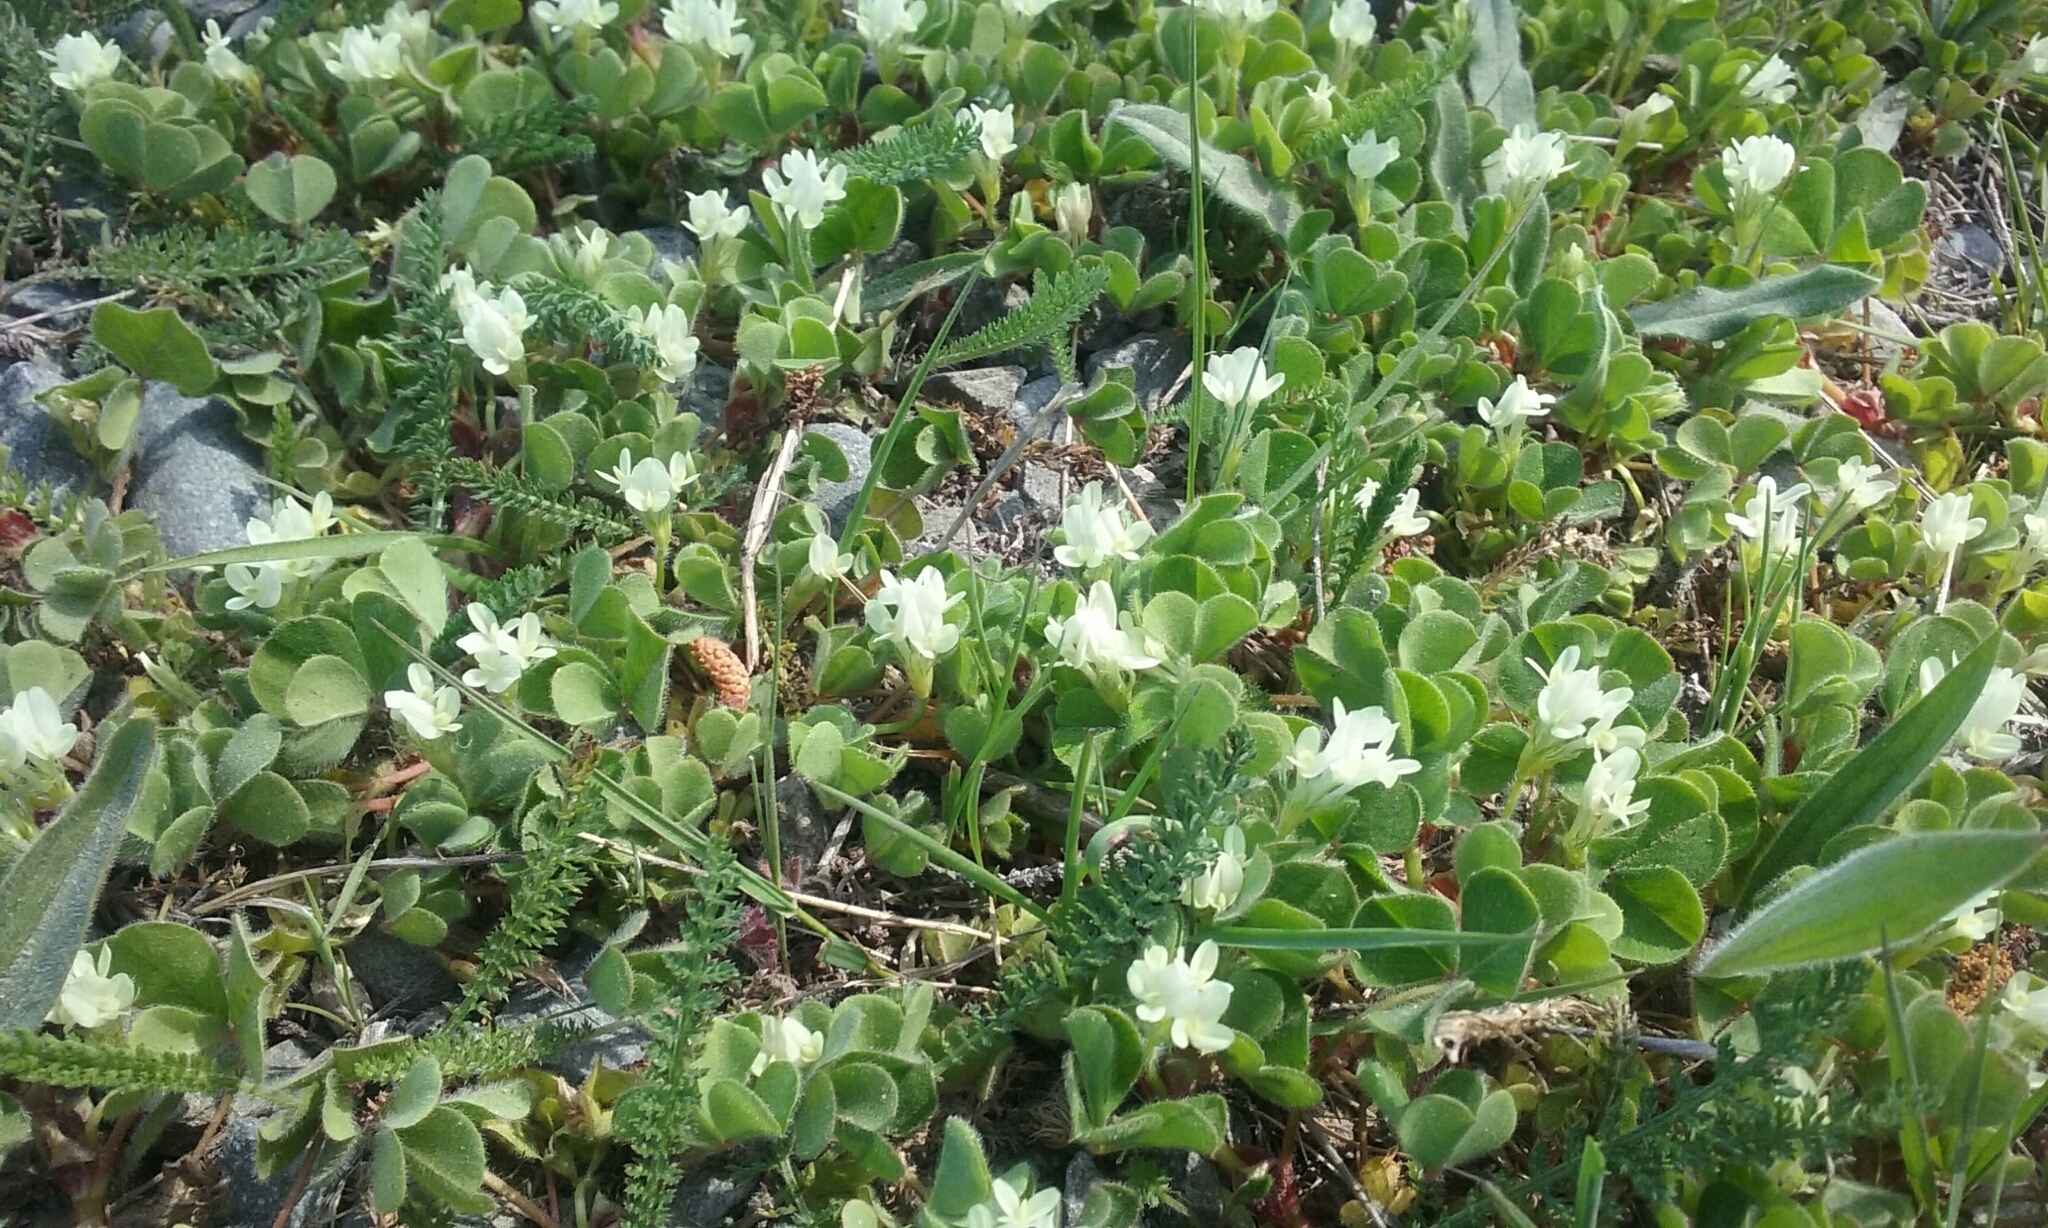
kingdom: Plantae
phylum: Tracheophyta
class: Magnoliopsida
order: Fabales
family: Fabaceae
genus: Trifolium
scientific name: Trifolium subterraneum
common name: Subterranean clover
